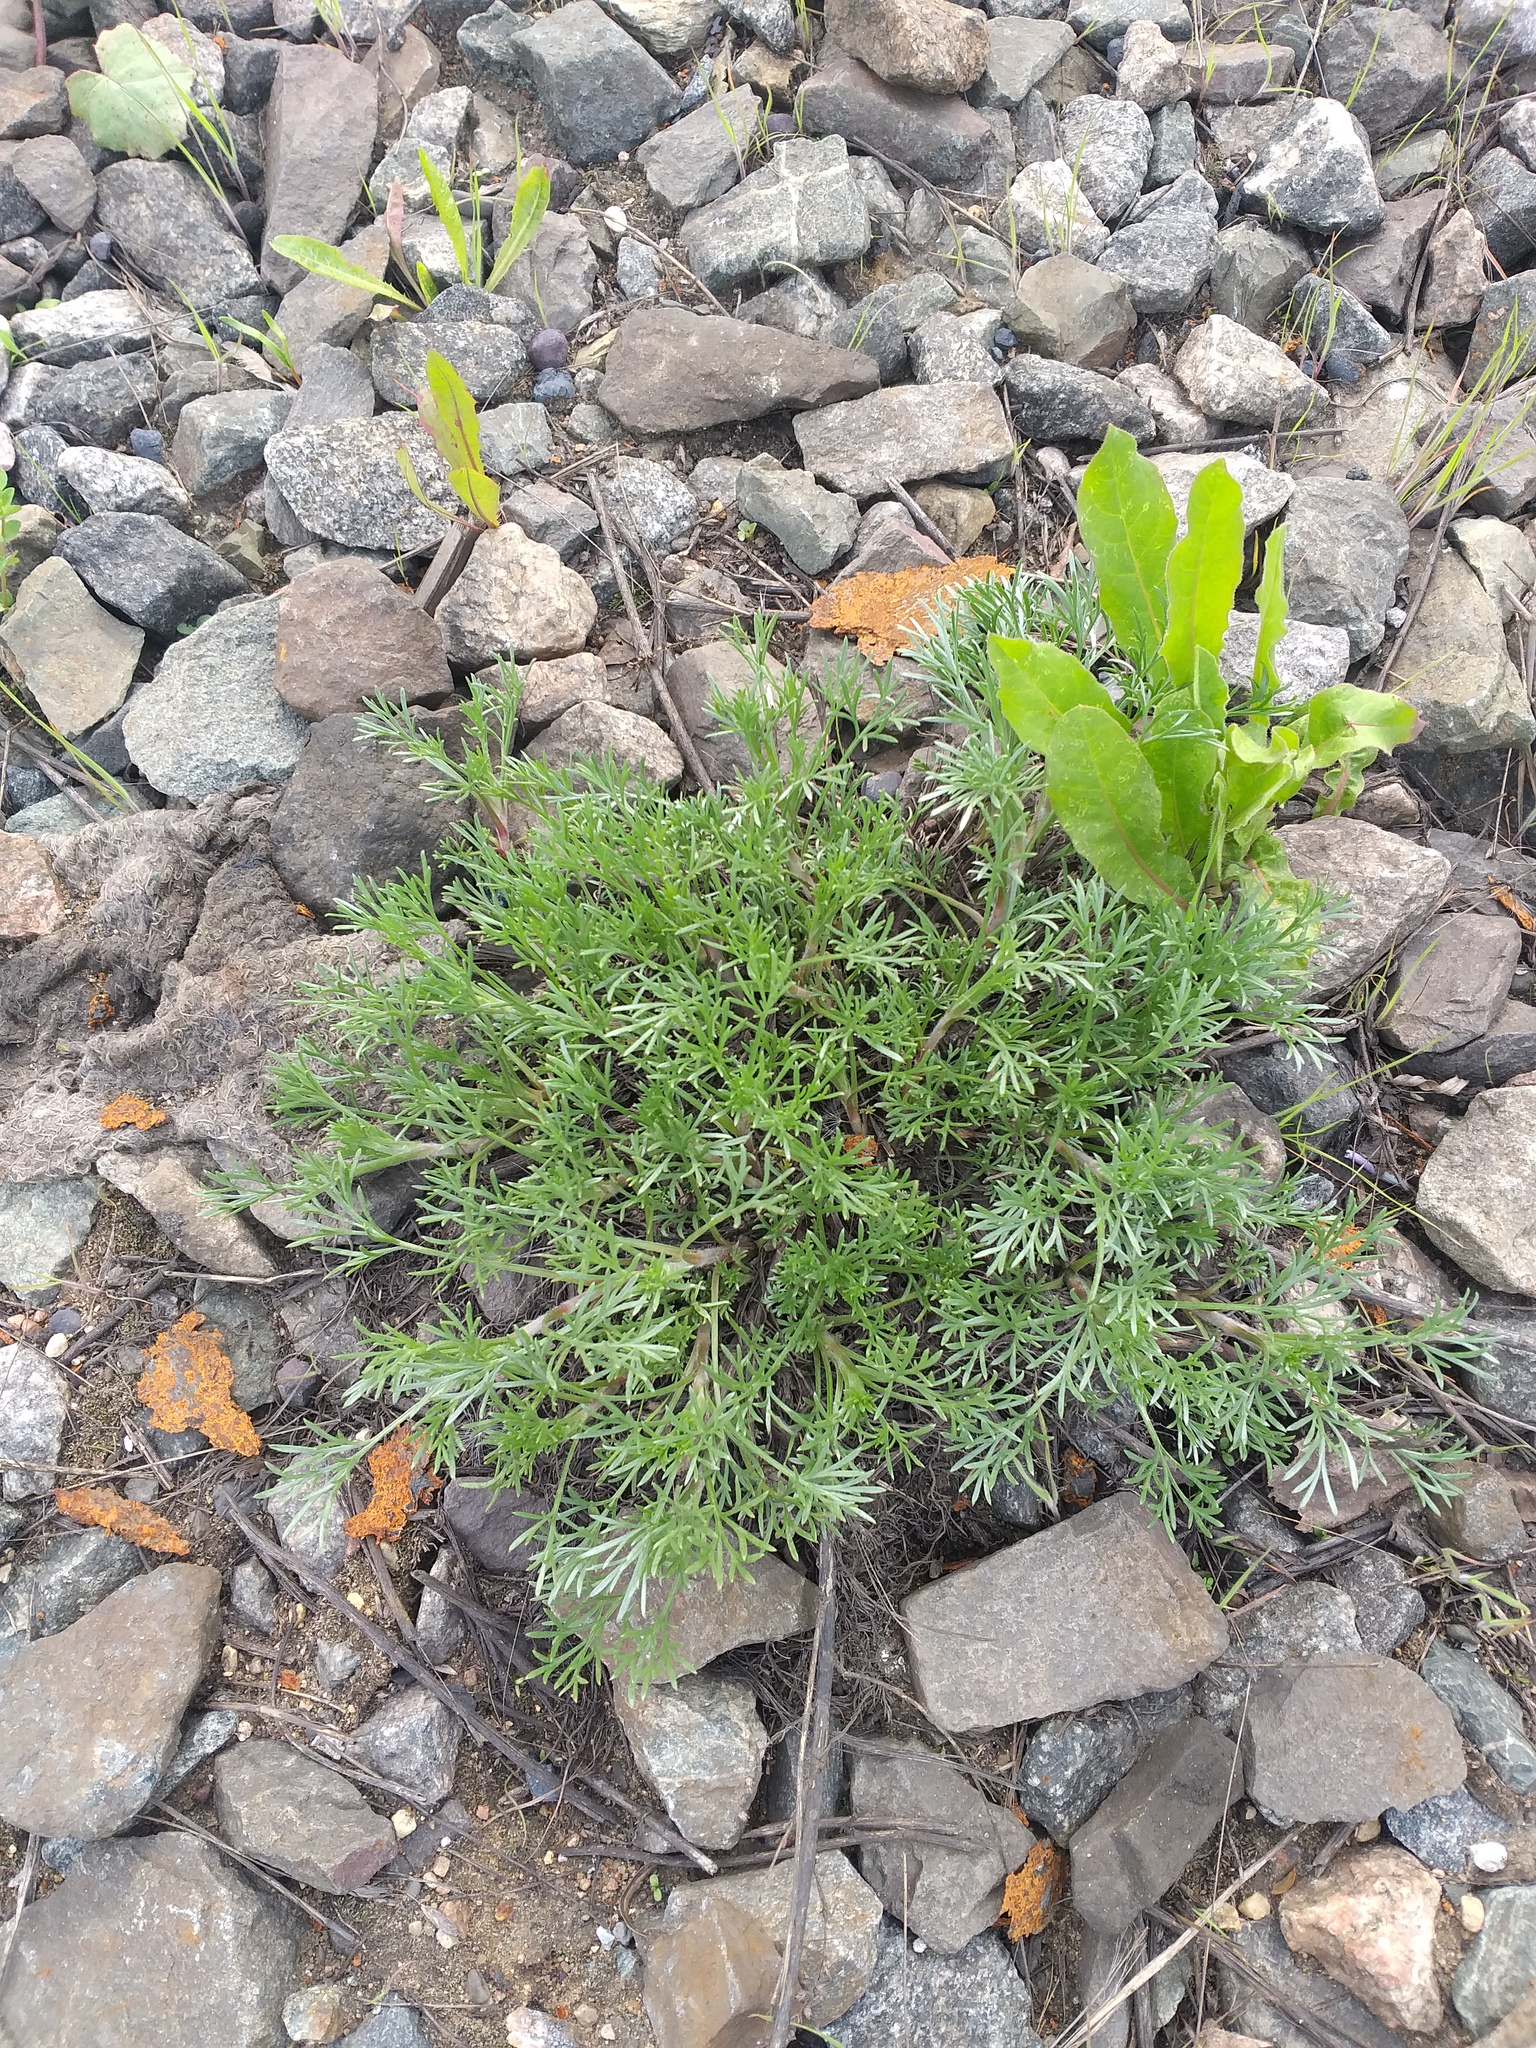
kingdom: Plantae
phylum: Tracheophyta
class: Magnoliopsida
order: Asterales
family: Asteraceae
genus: Artemisia
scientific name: Artemisia campestris
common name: Field wormwood
